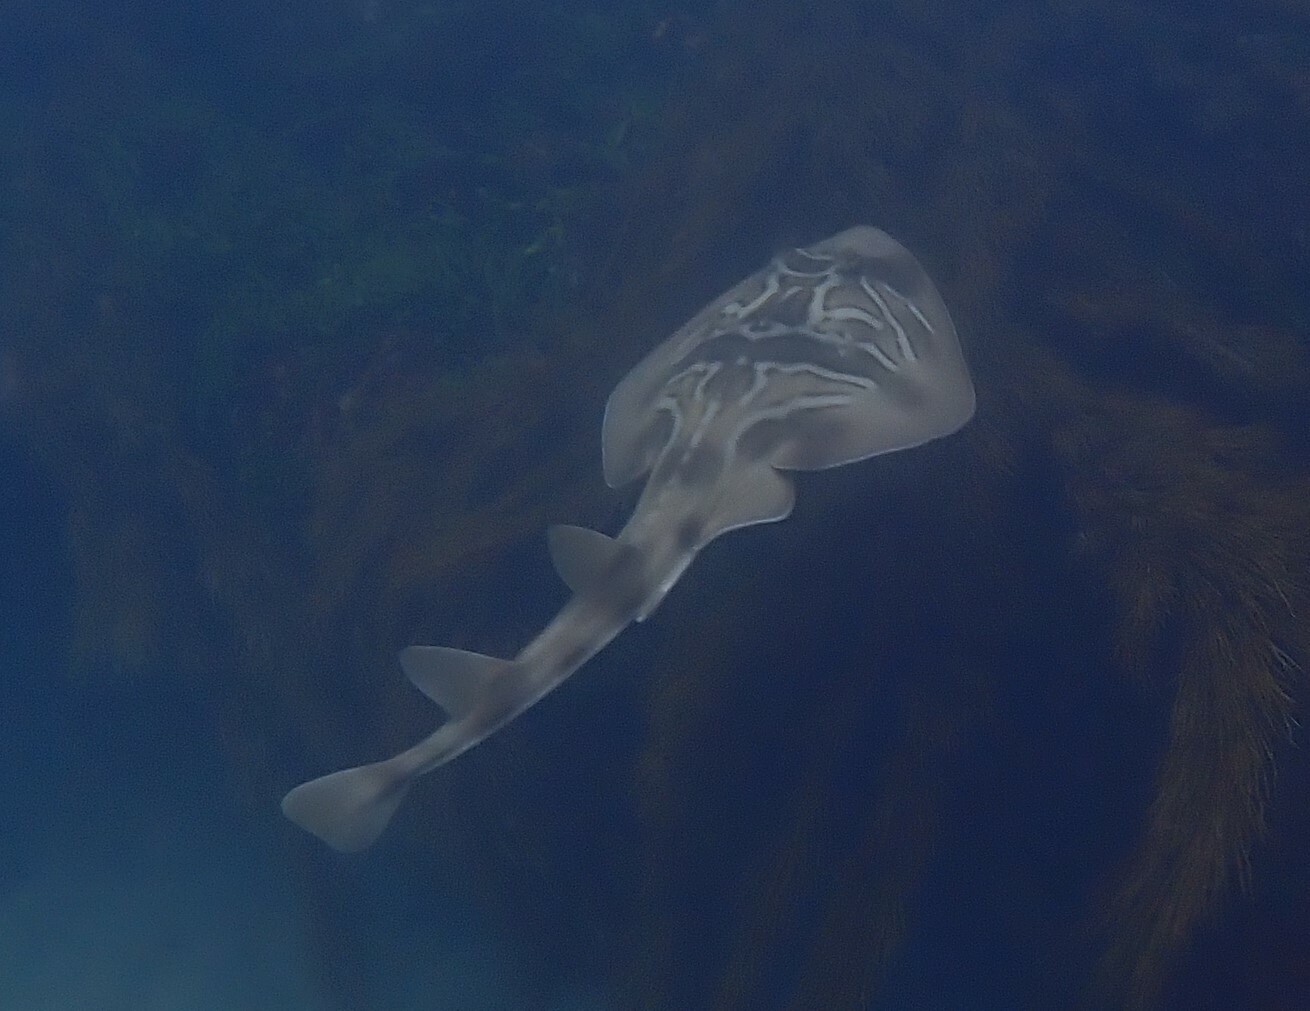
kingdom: Animalia
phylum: Chordata
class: Elasmobranchii
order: Rhinopristiformes
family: Rhinobatidae
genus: Trygonorrhina
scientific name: Trygonorrhina dumerilii
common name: Banjo shark
